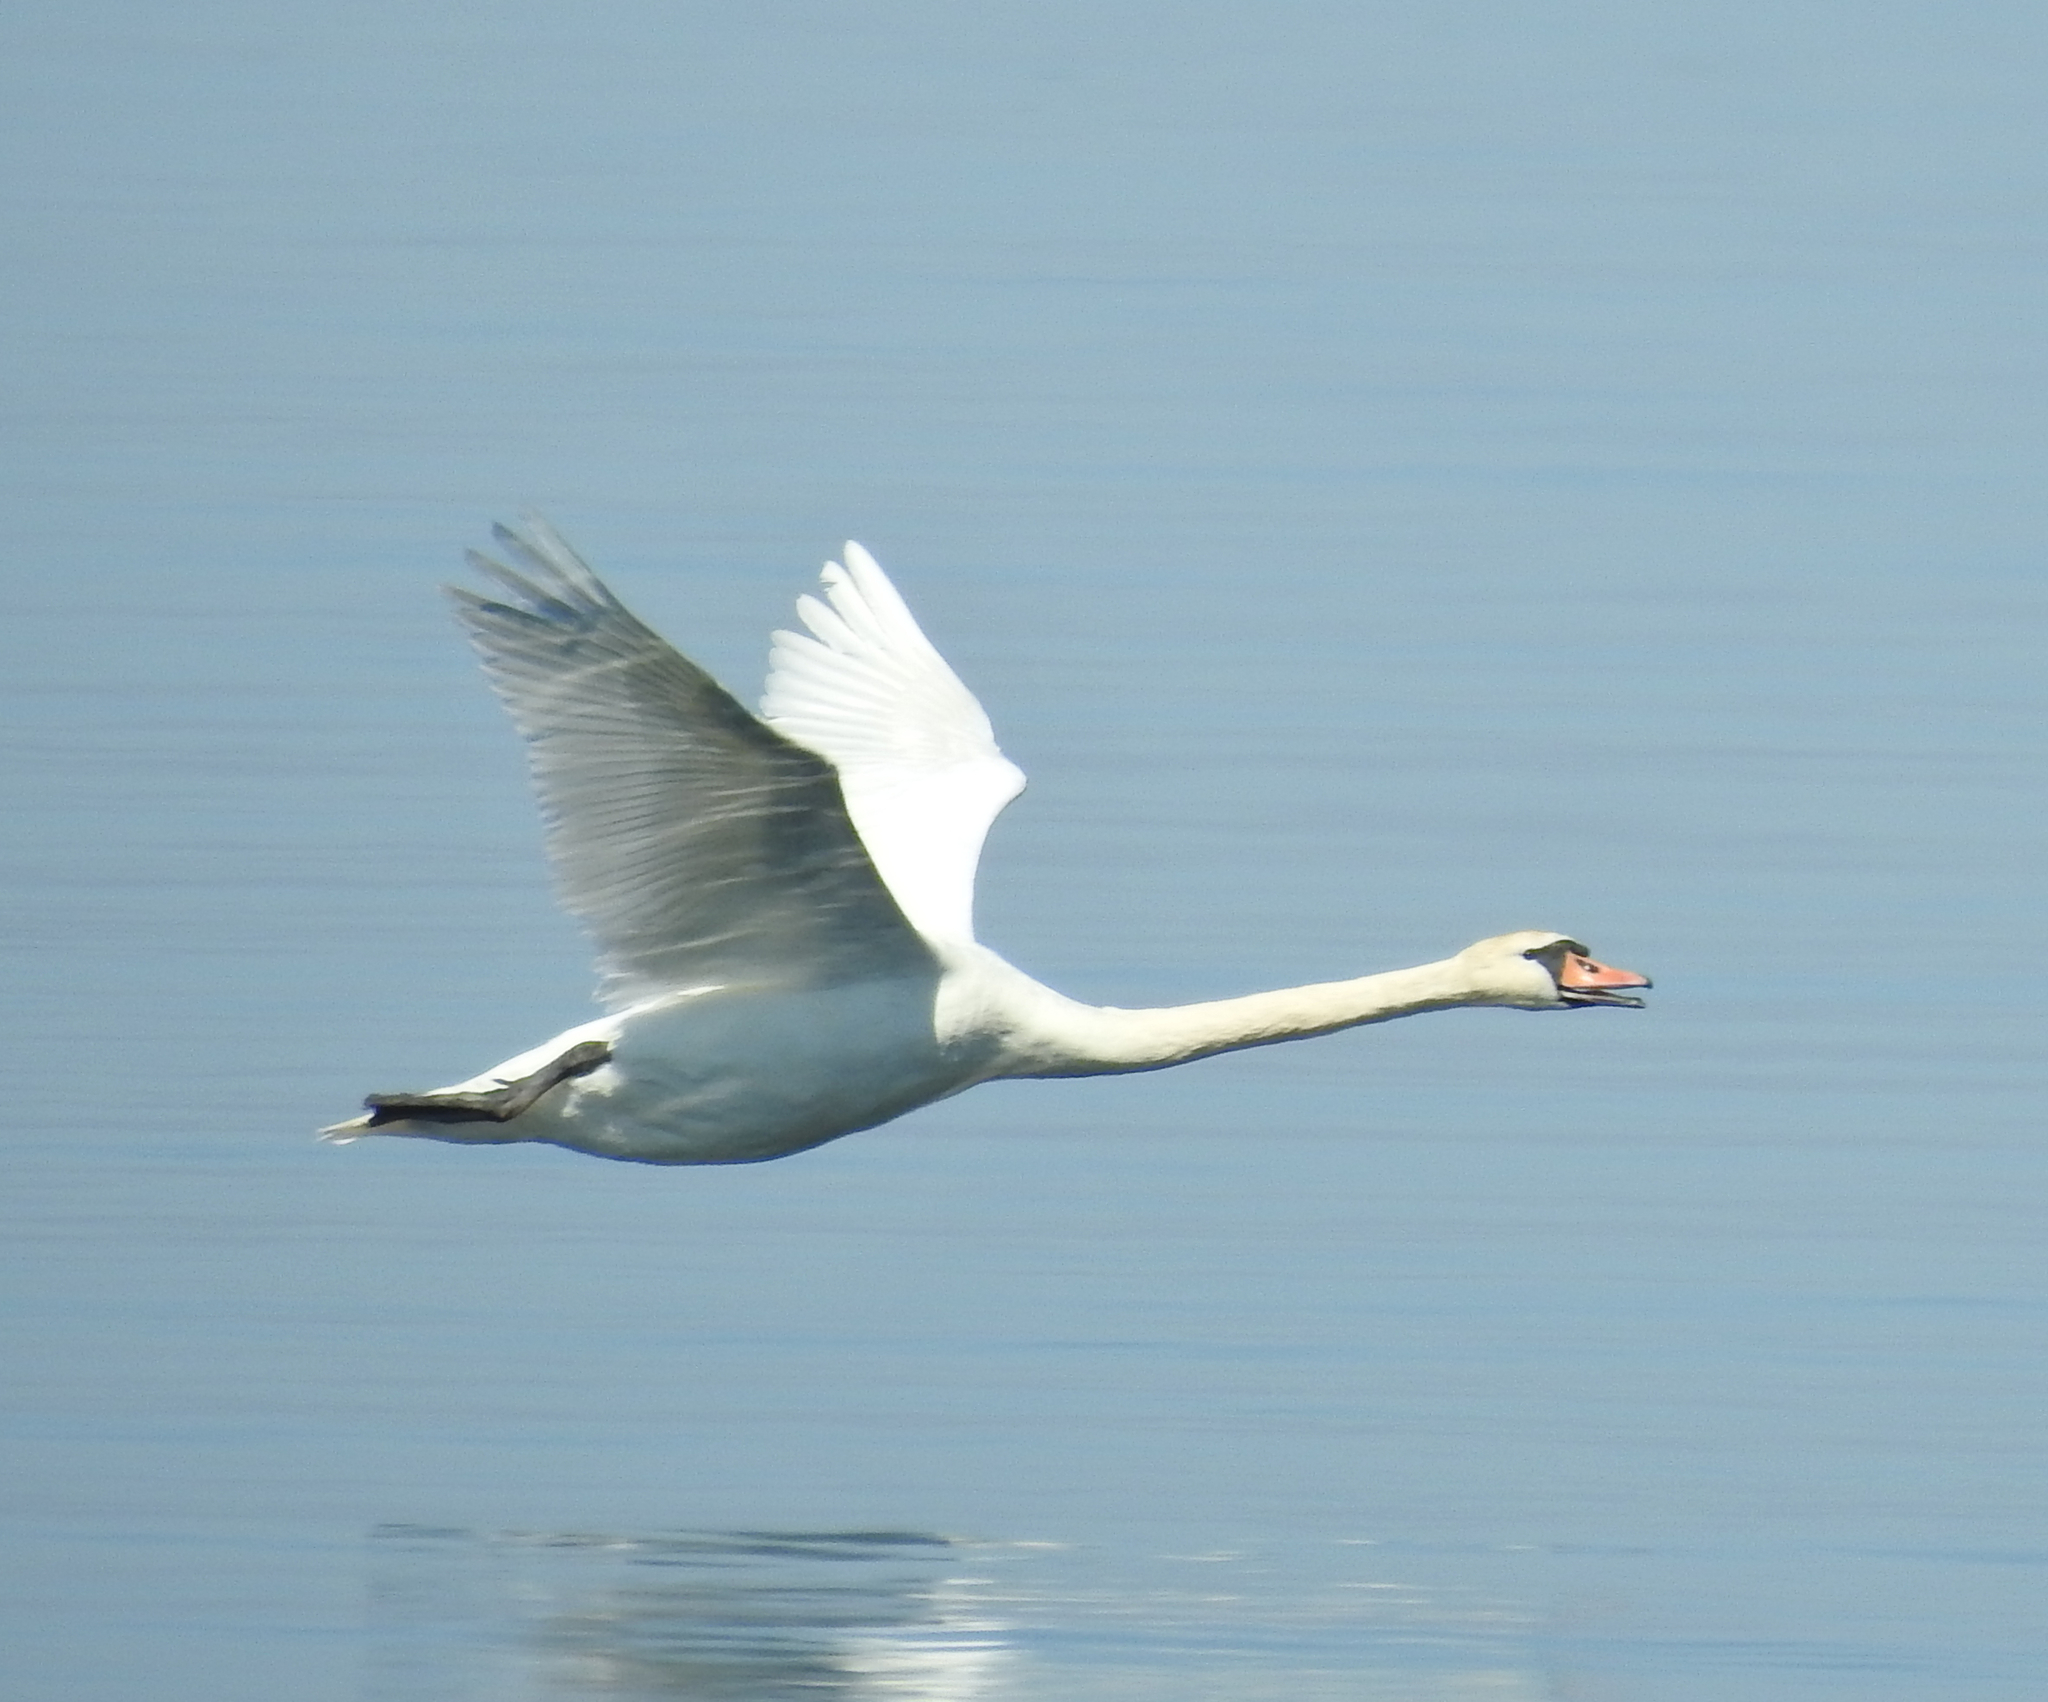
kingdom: Animalia
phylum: Chordata
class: Aves
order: Anseriformes
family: Anatidae
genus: Cygnus
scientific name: Cygnus olor
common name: Mute swan
